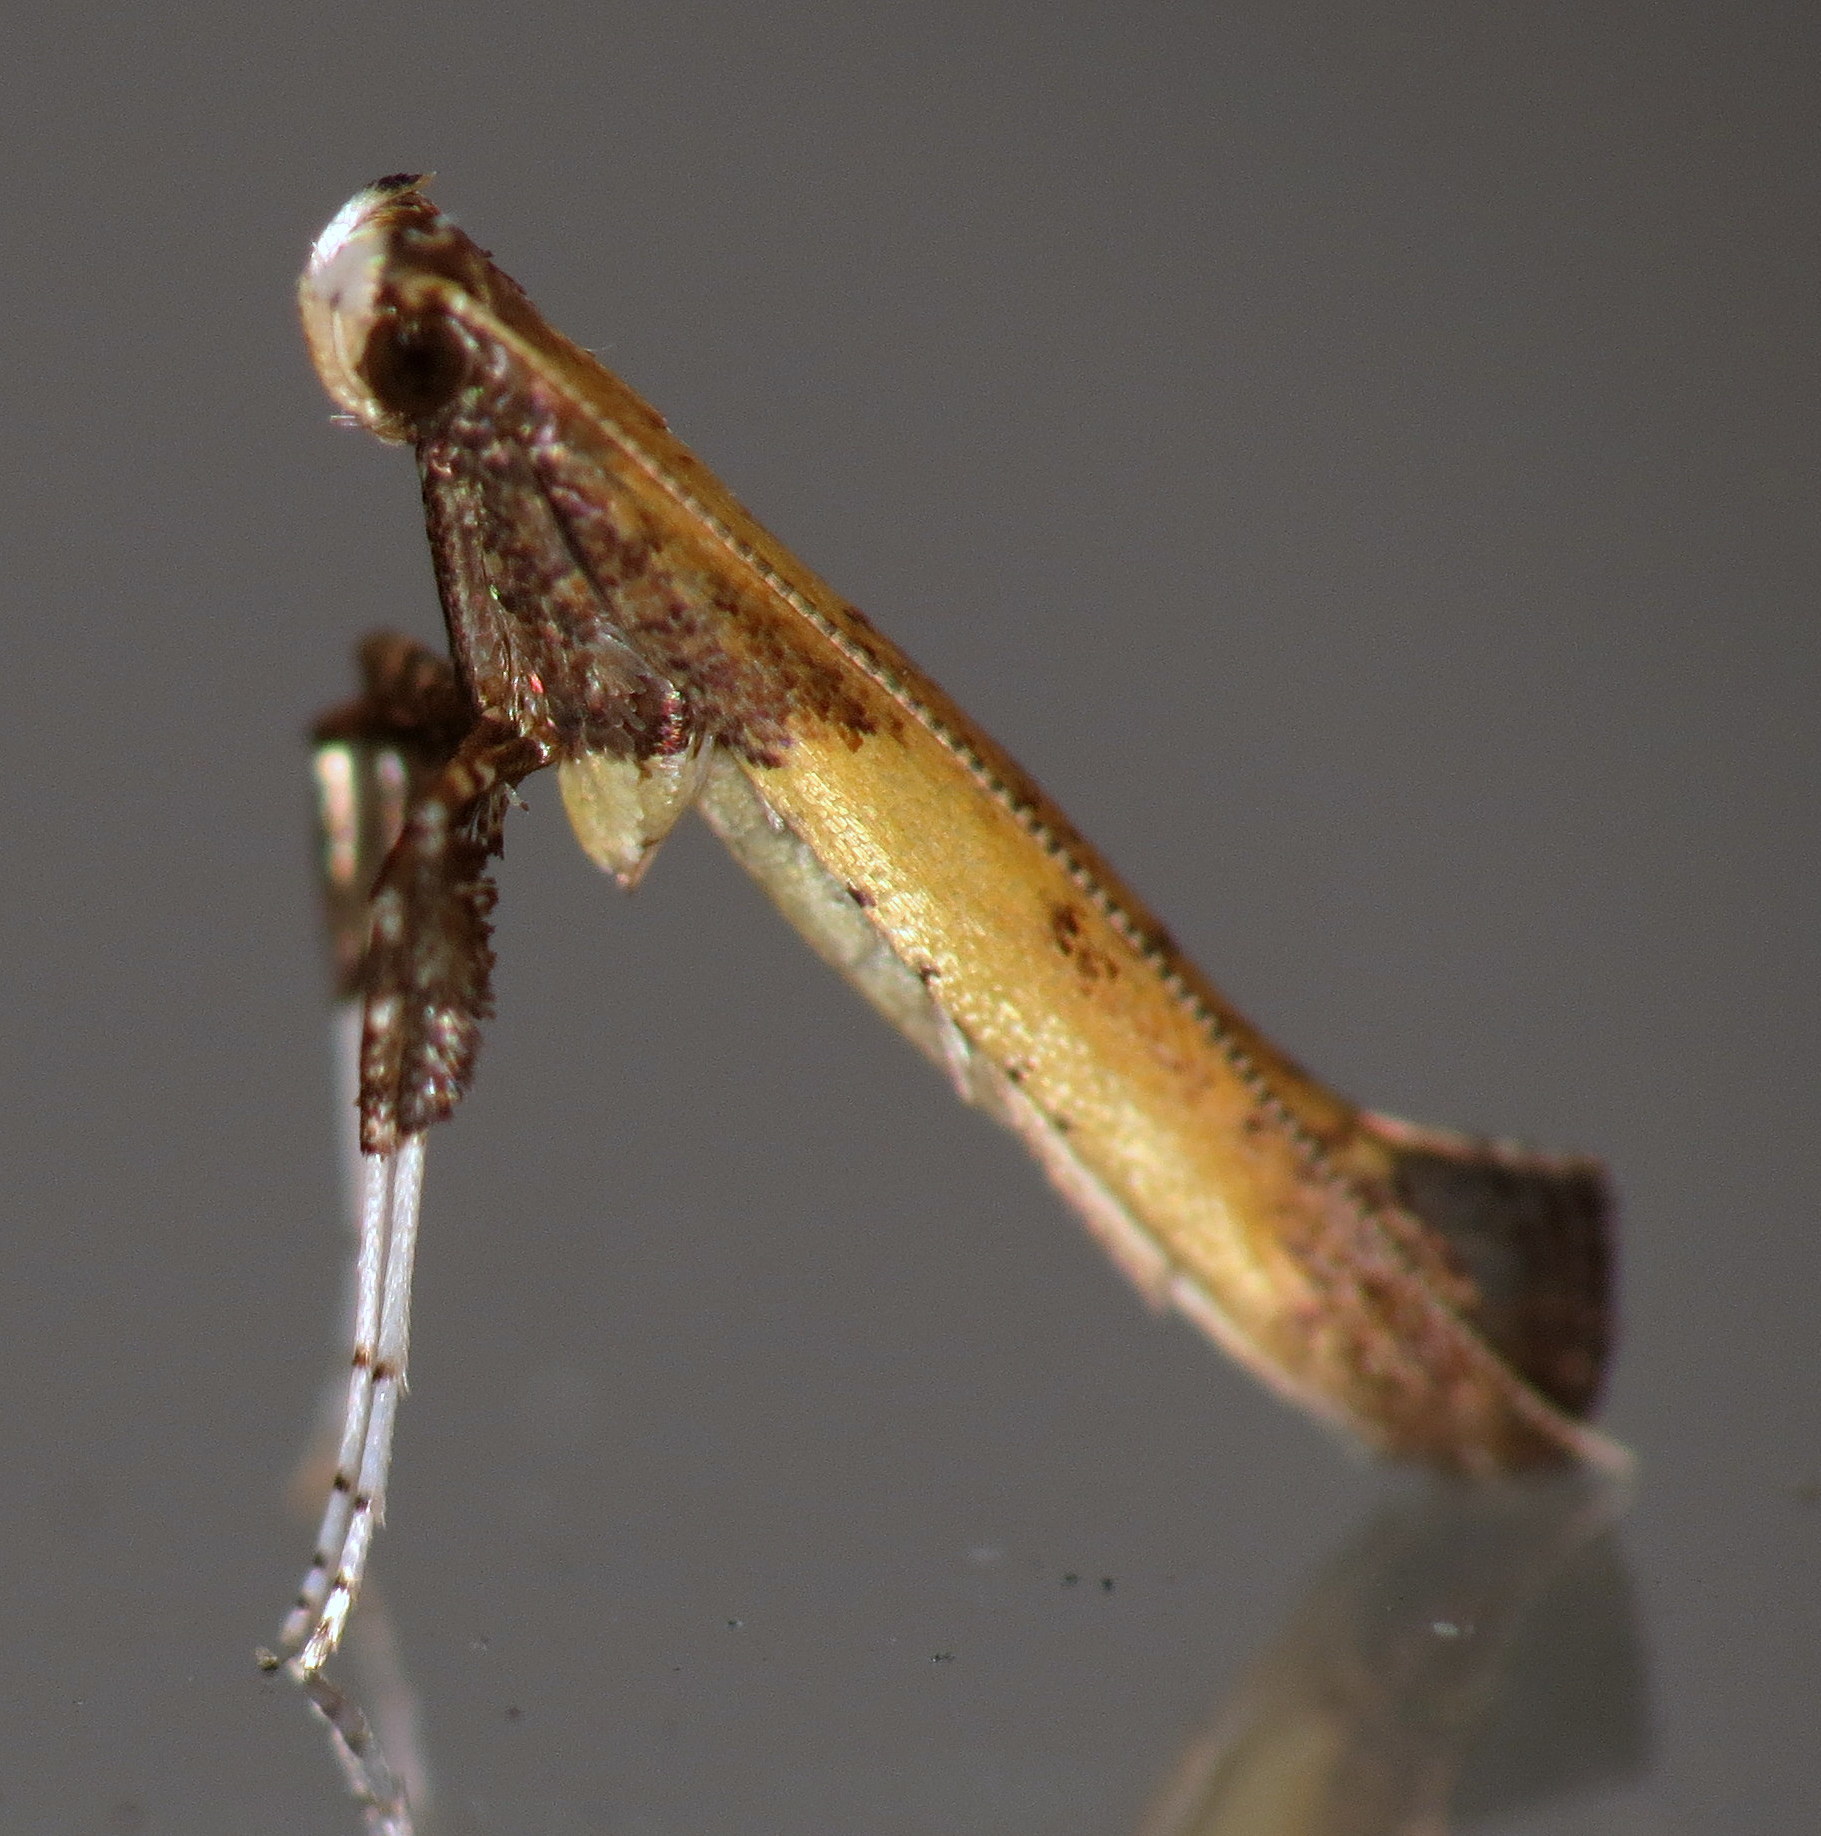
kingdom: Animalia
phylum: Arthropoda
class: Insecta
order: Lepidoptera
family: Gracillariidae
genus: Caloptilia
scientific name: Caloptilia azaleella
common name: Azalea leafminer
